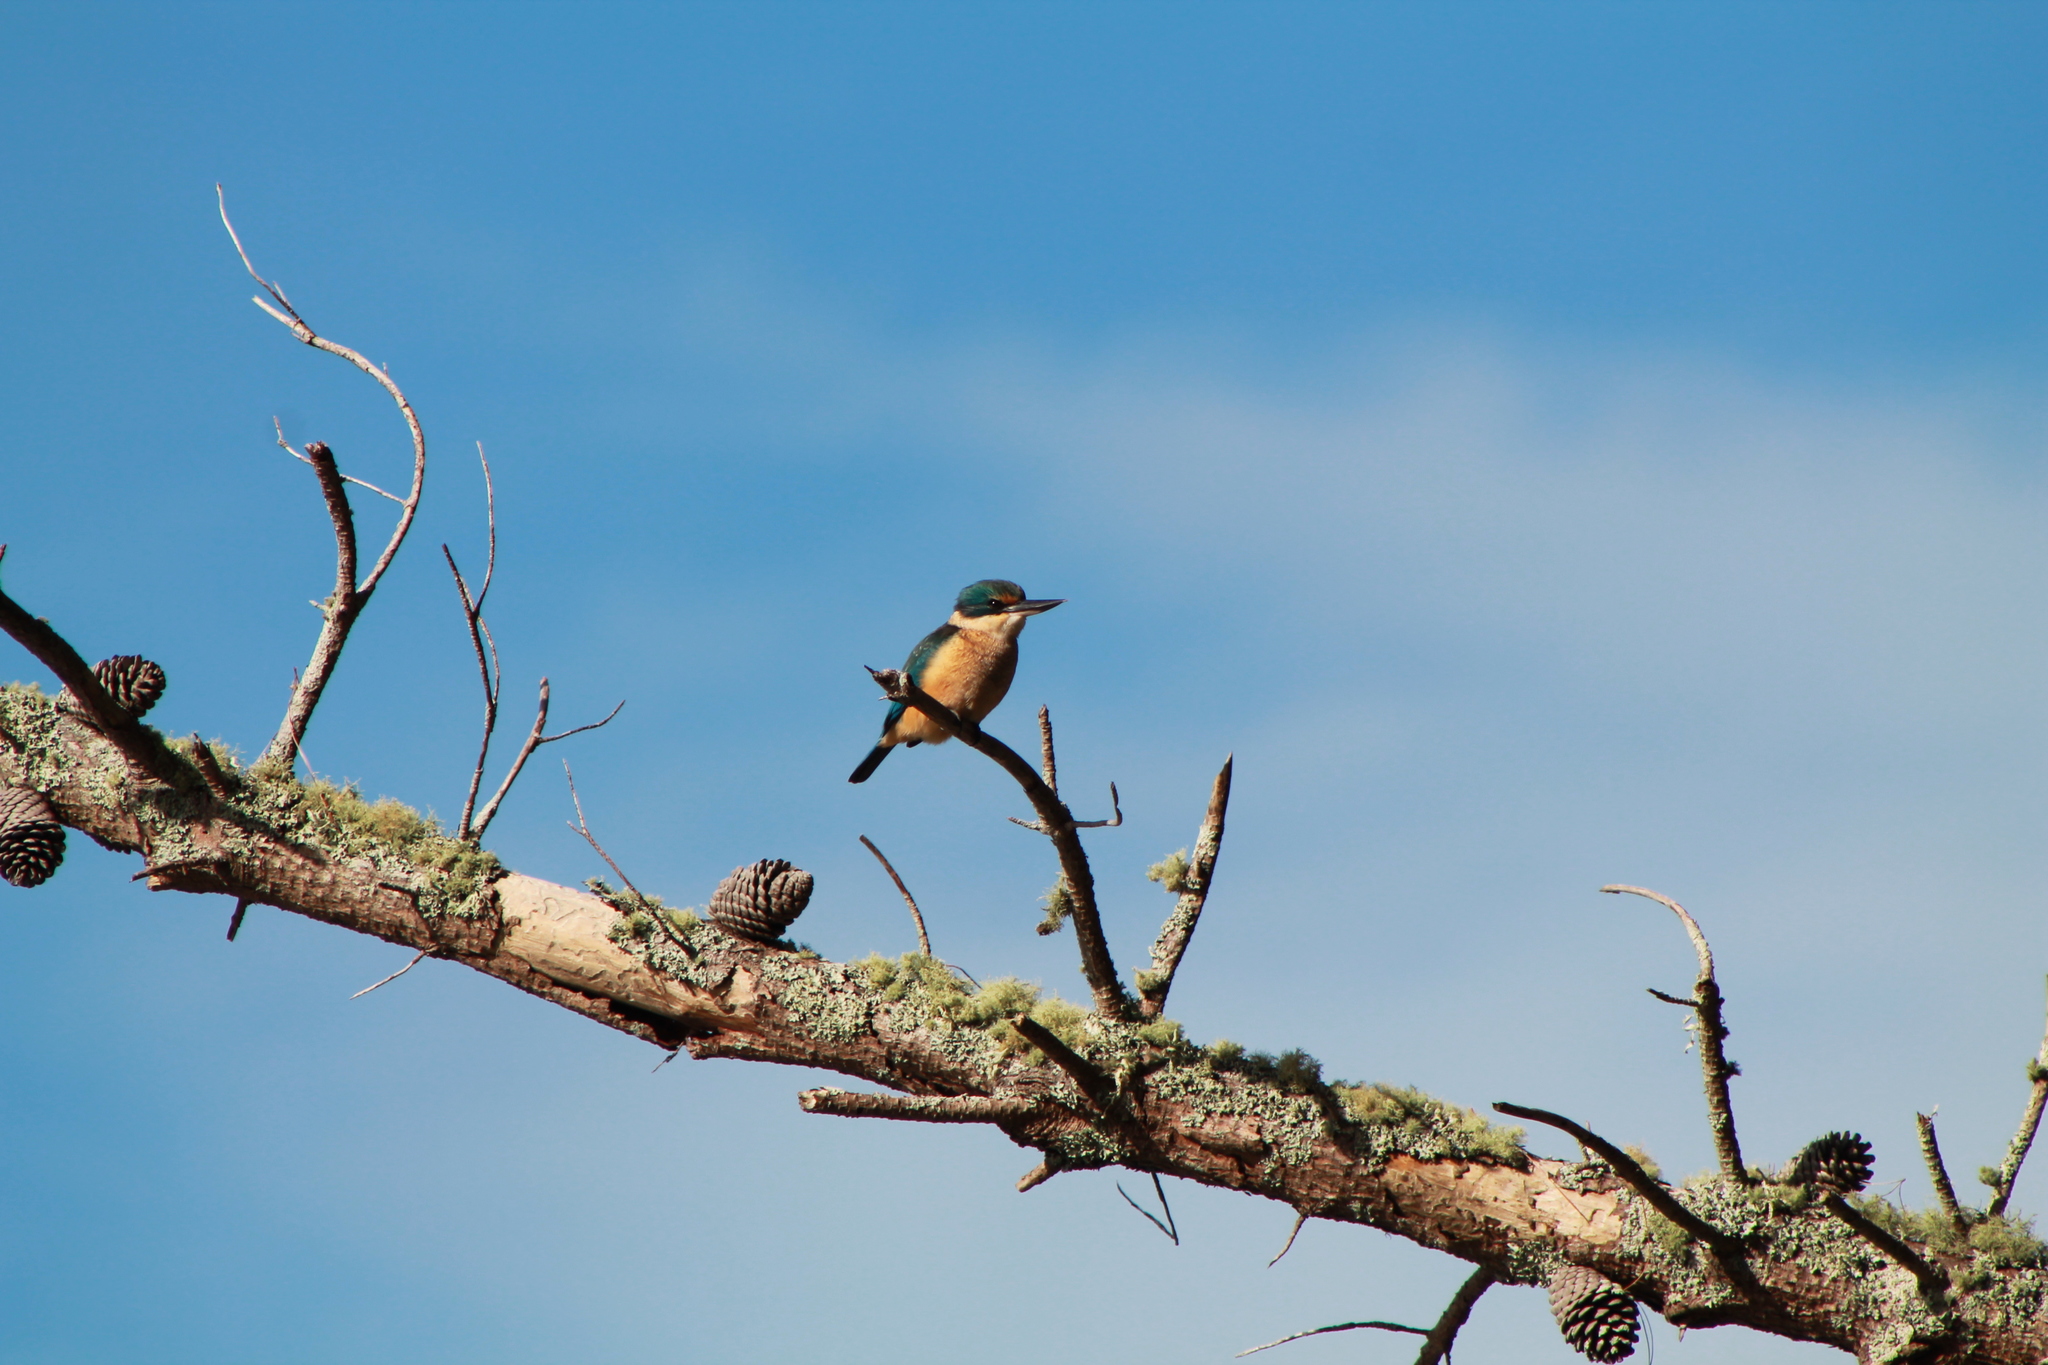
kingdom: Animalia
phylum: Chordata
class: Aves
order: Coraciiformes
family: Alcedinidae
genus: Todiramphus
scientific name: Todiramphus sanctus
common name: Sacred kingfisher
